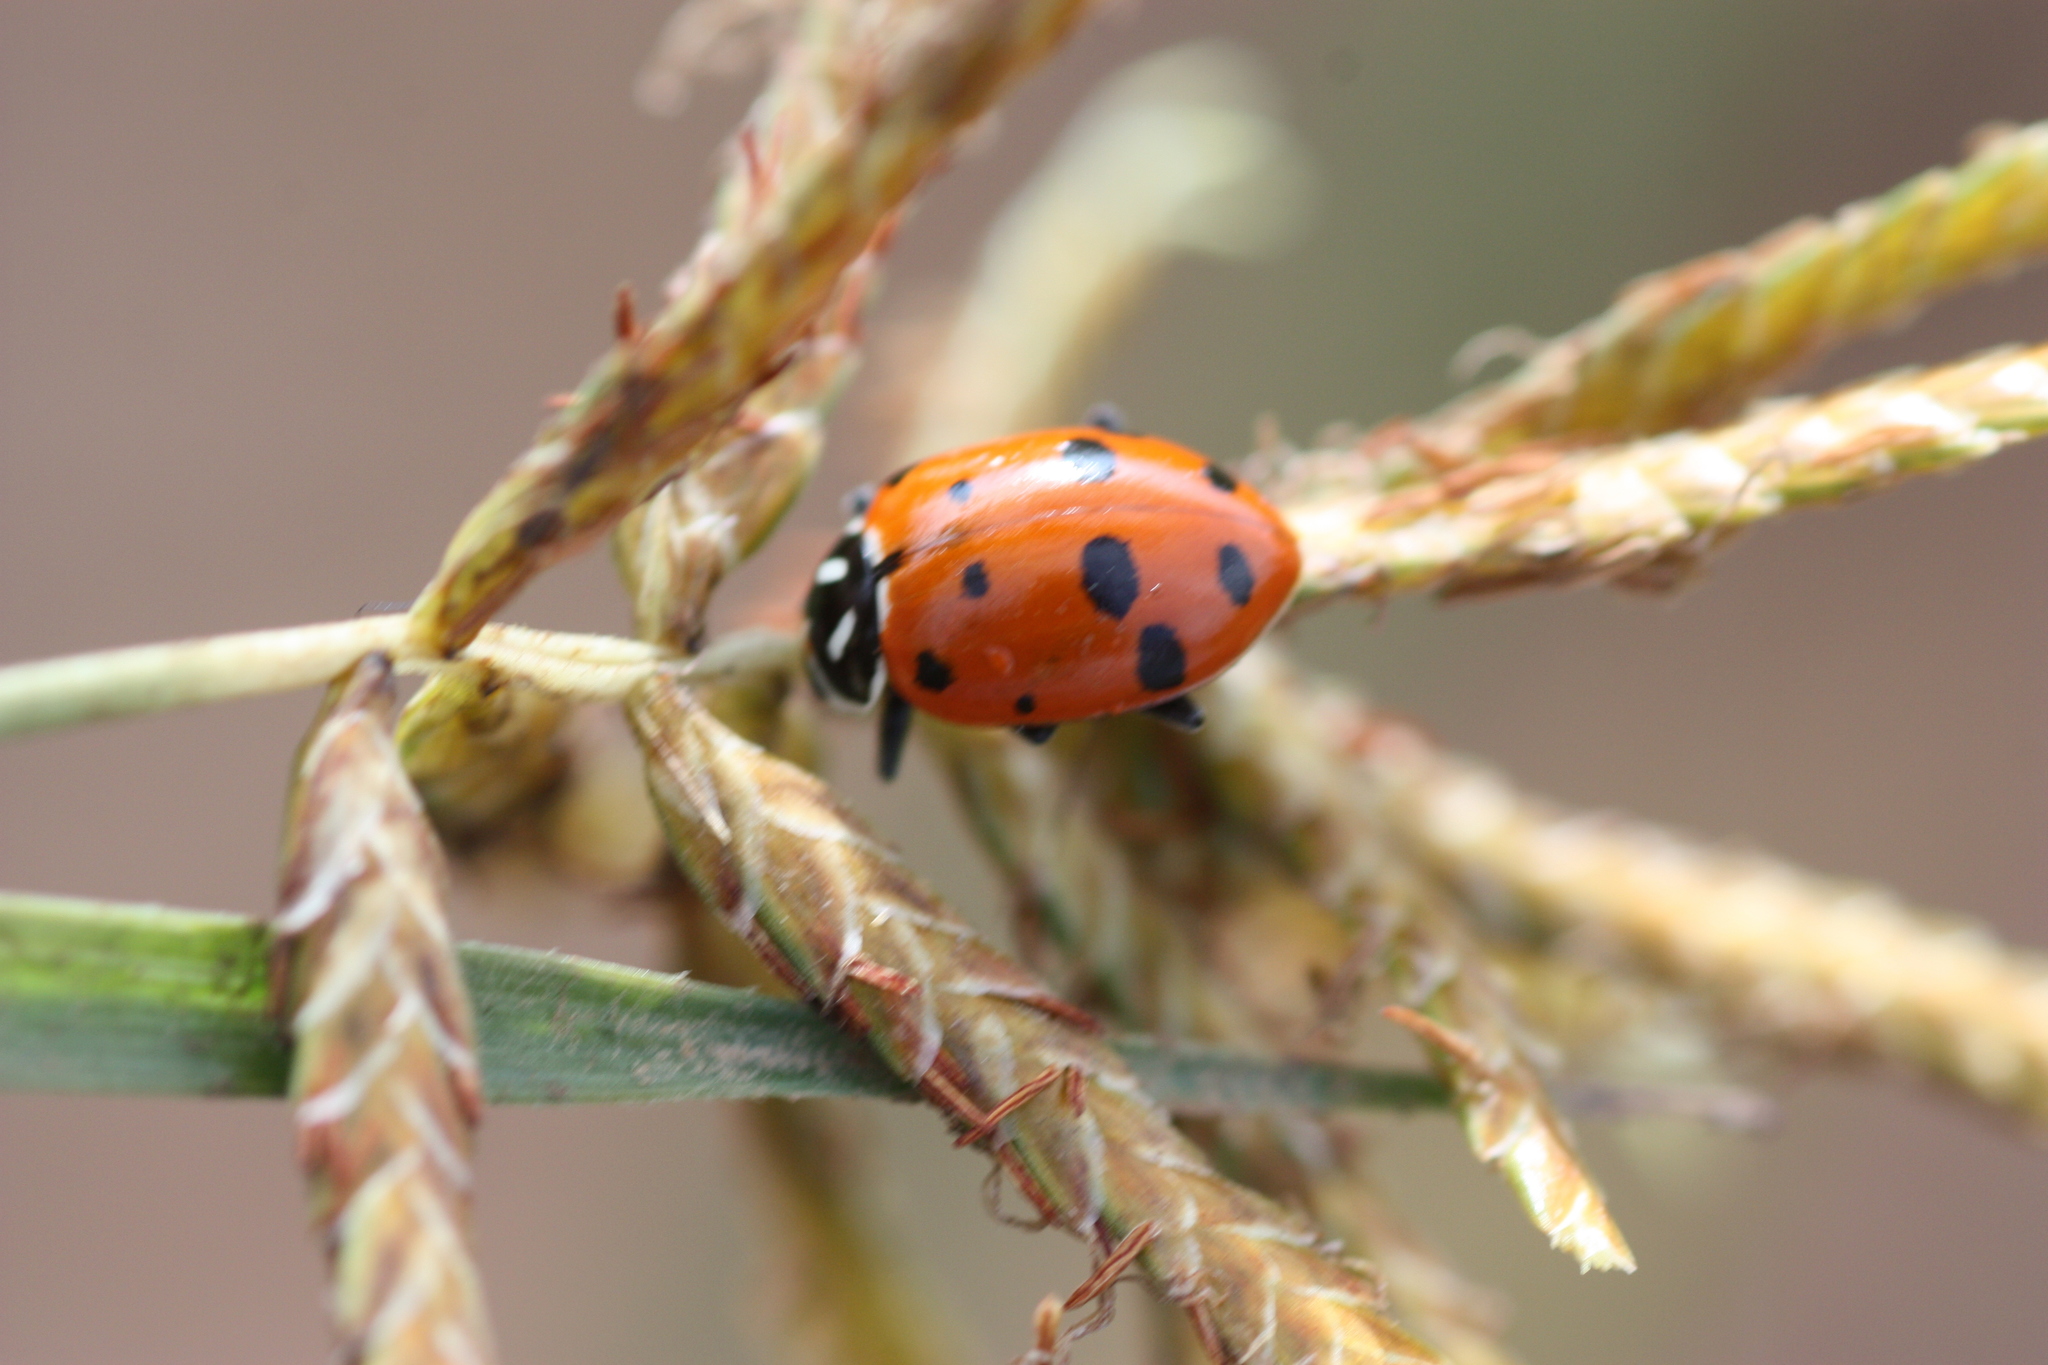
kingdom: Animalia
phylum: Arthropoda
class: Insecta
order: Coleoptera
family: Coccinellidae
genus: Hippodamia
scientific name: Hippodamia convergens
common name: Convergent lady beetle
